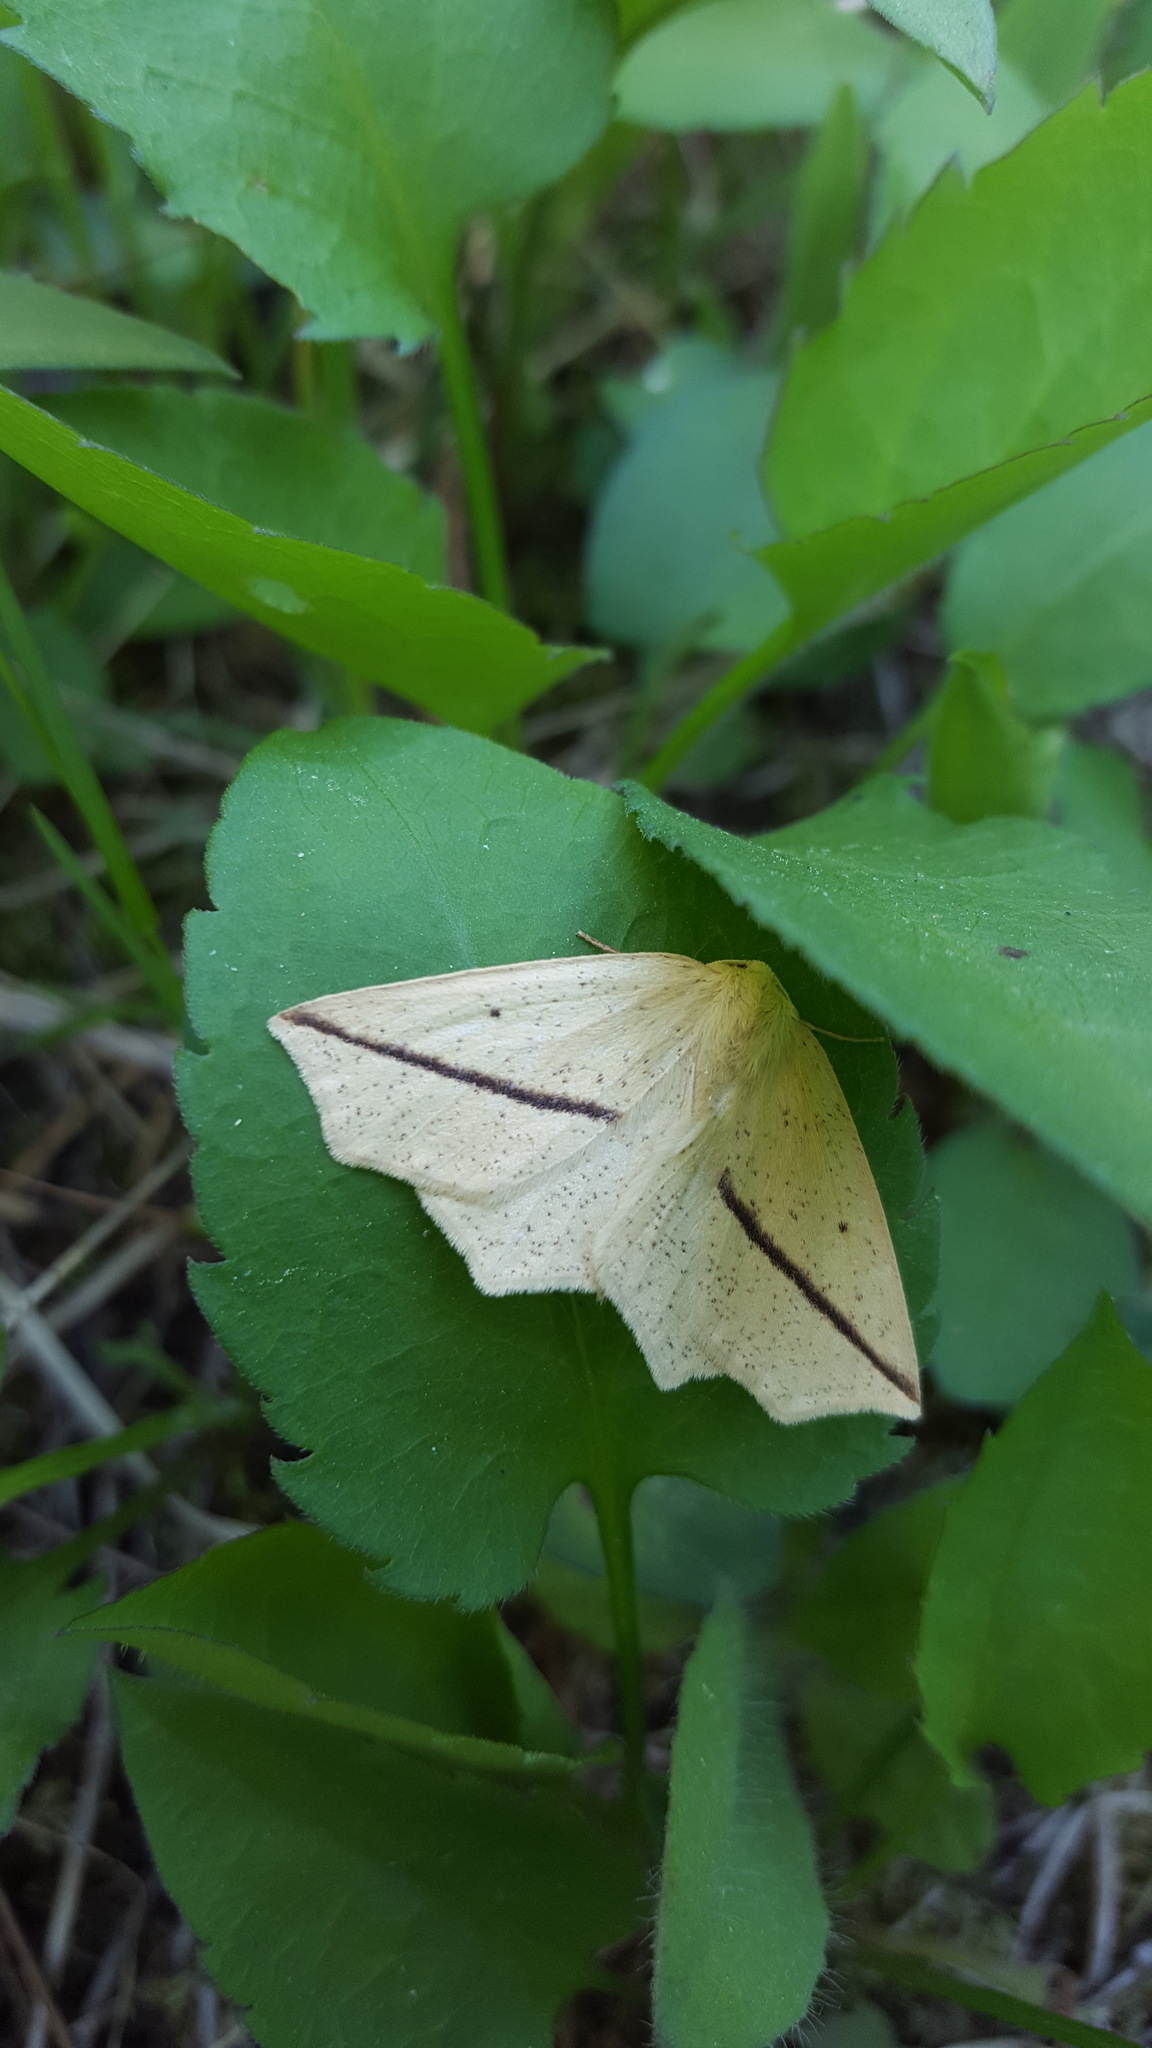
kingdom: Animalia
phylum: Arthropoda
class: Insecta
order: Lepidoptera
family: Geometridae
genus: Tetracis
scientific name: Tetracis crocallata
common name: Yellow slant-line
